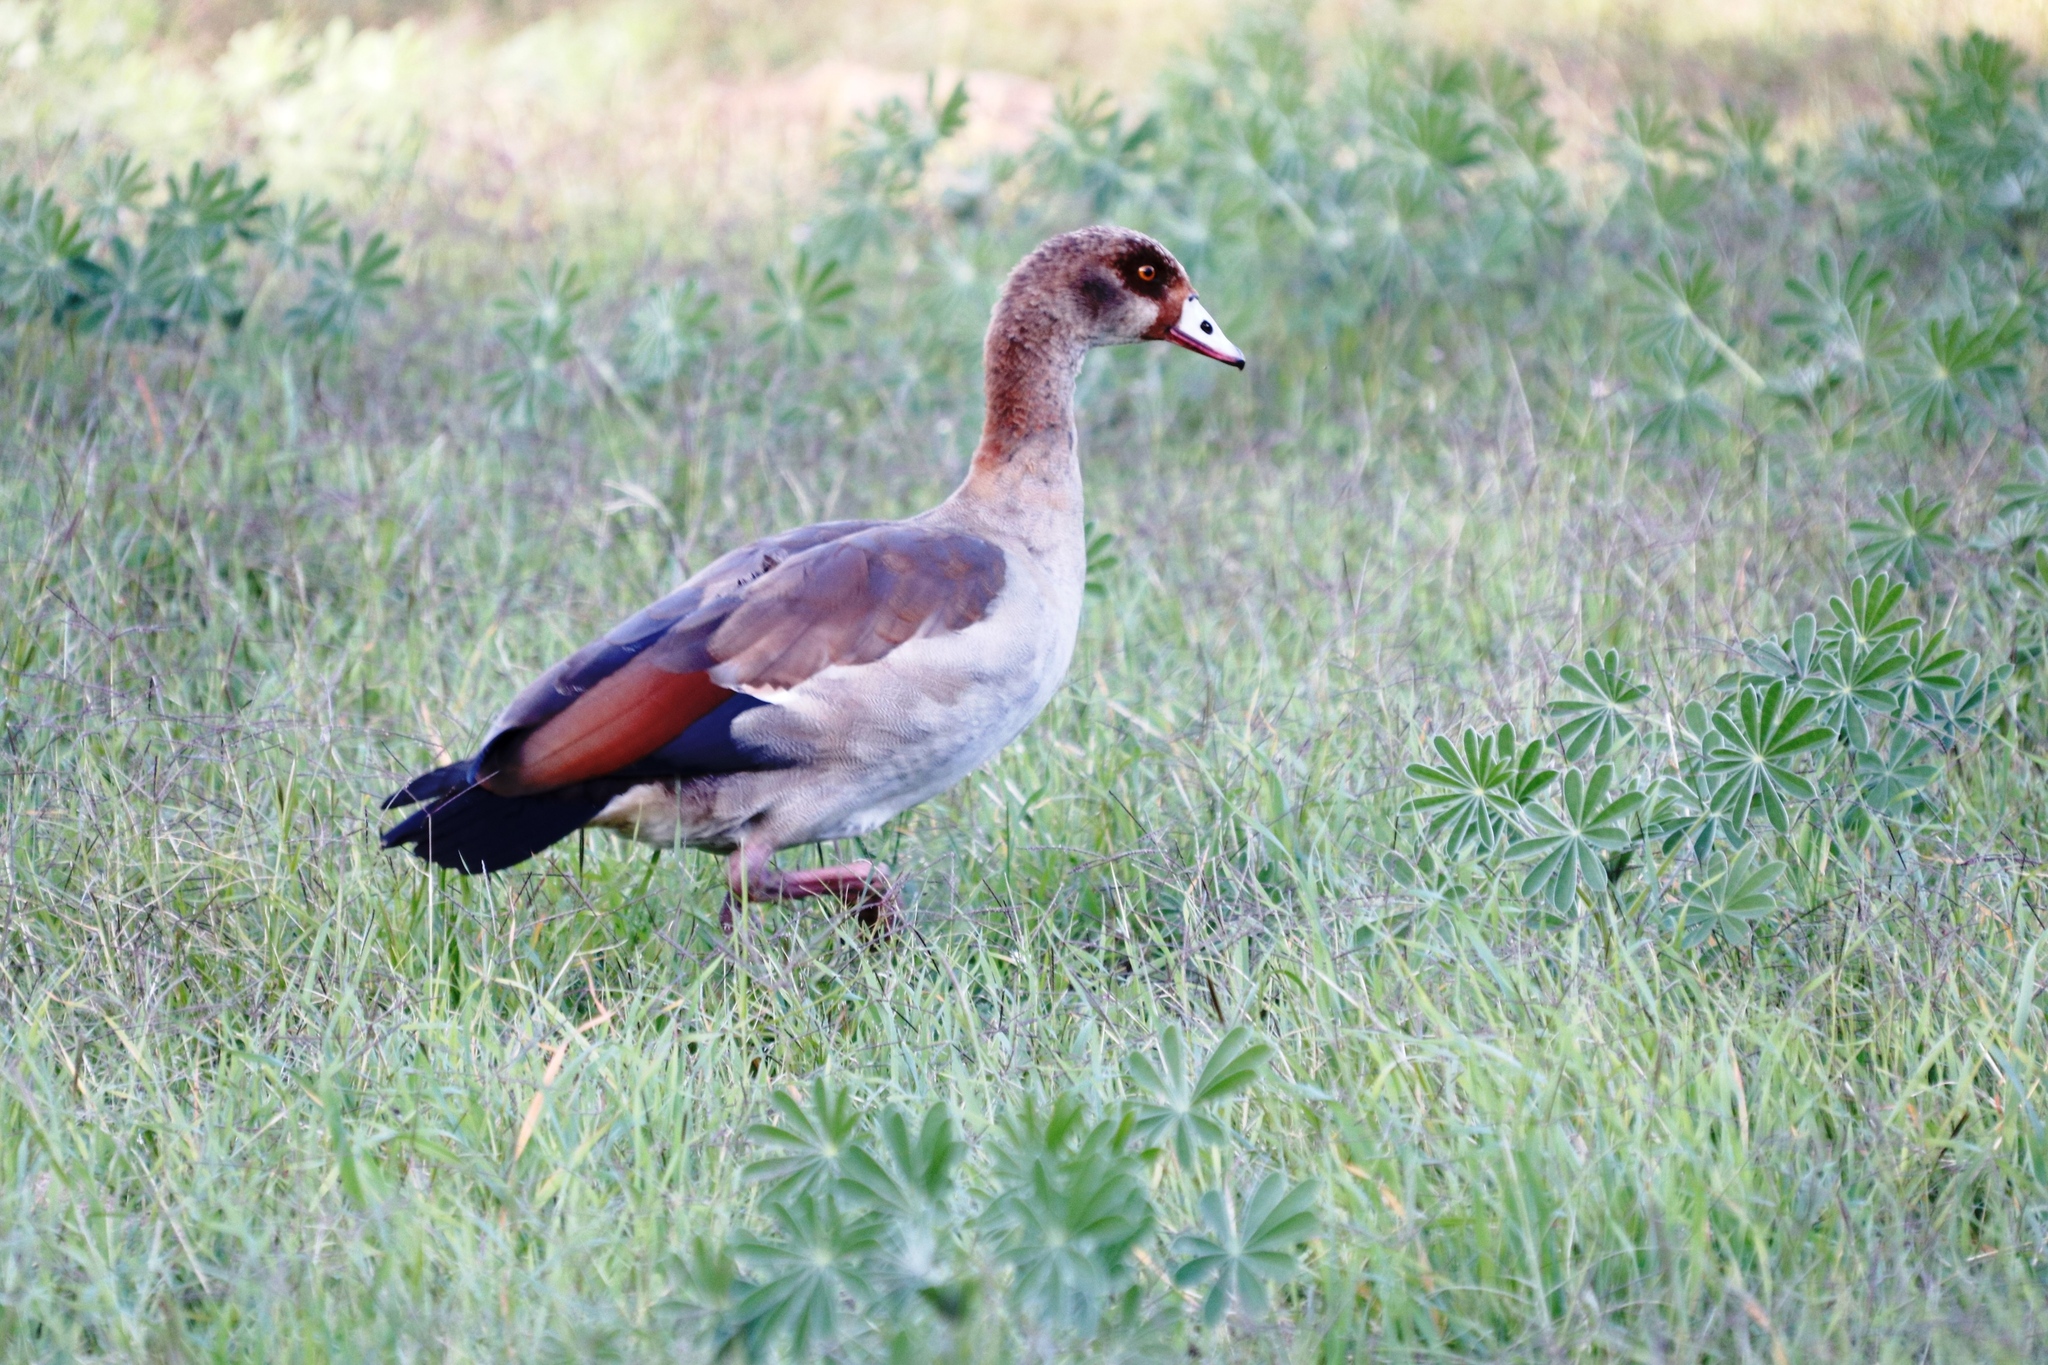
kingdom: Animalia
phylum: Chordata
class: Aves
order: Anseriformes
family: Anatidae
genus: Alopochen
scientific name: Alopochen aegyptiaca
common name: Egyptian goose
